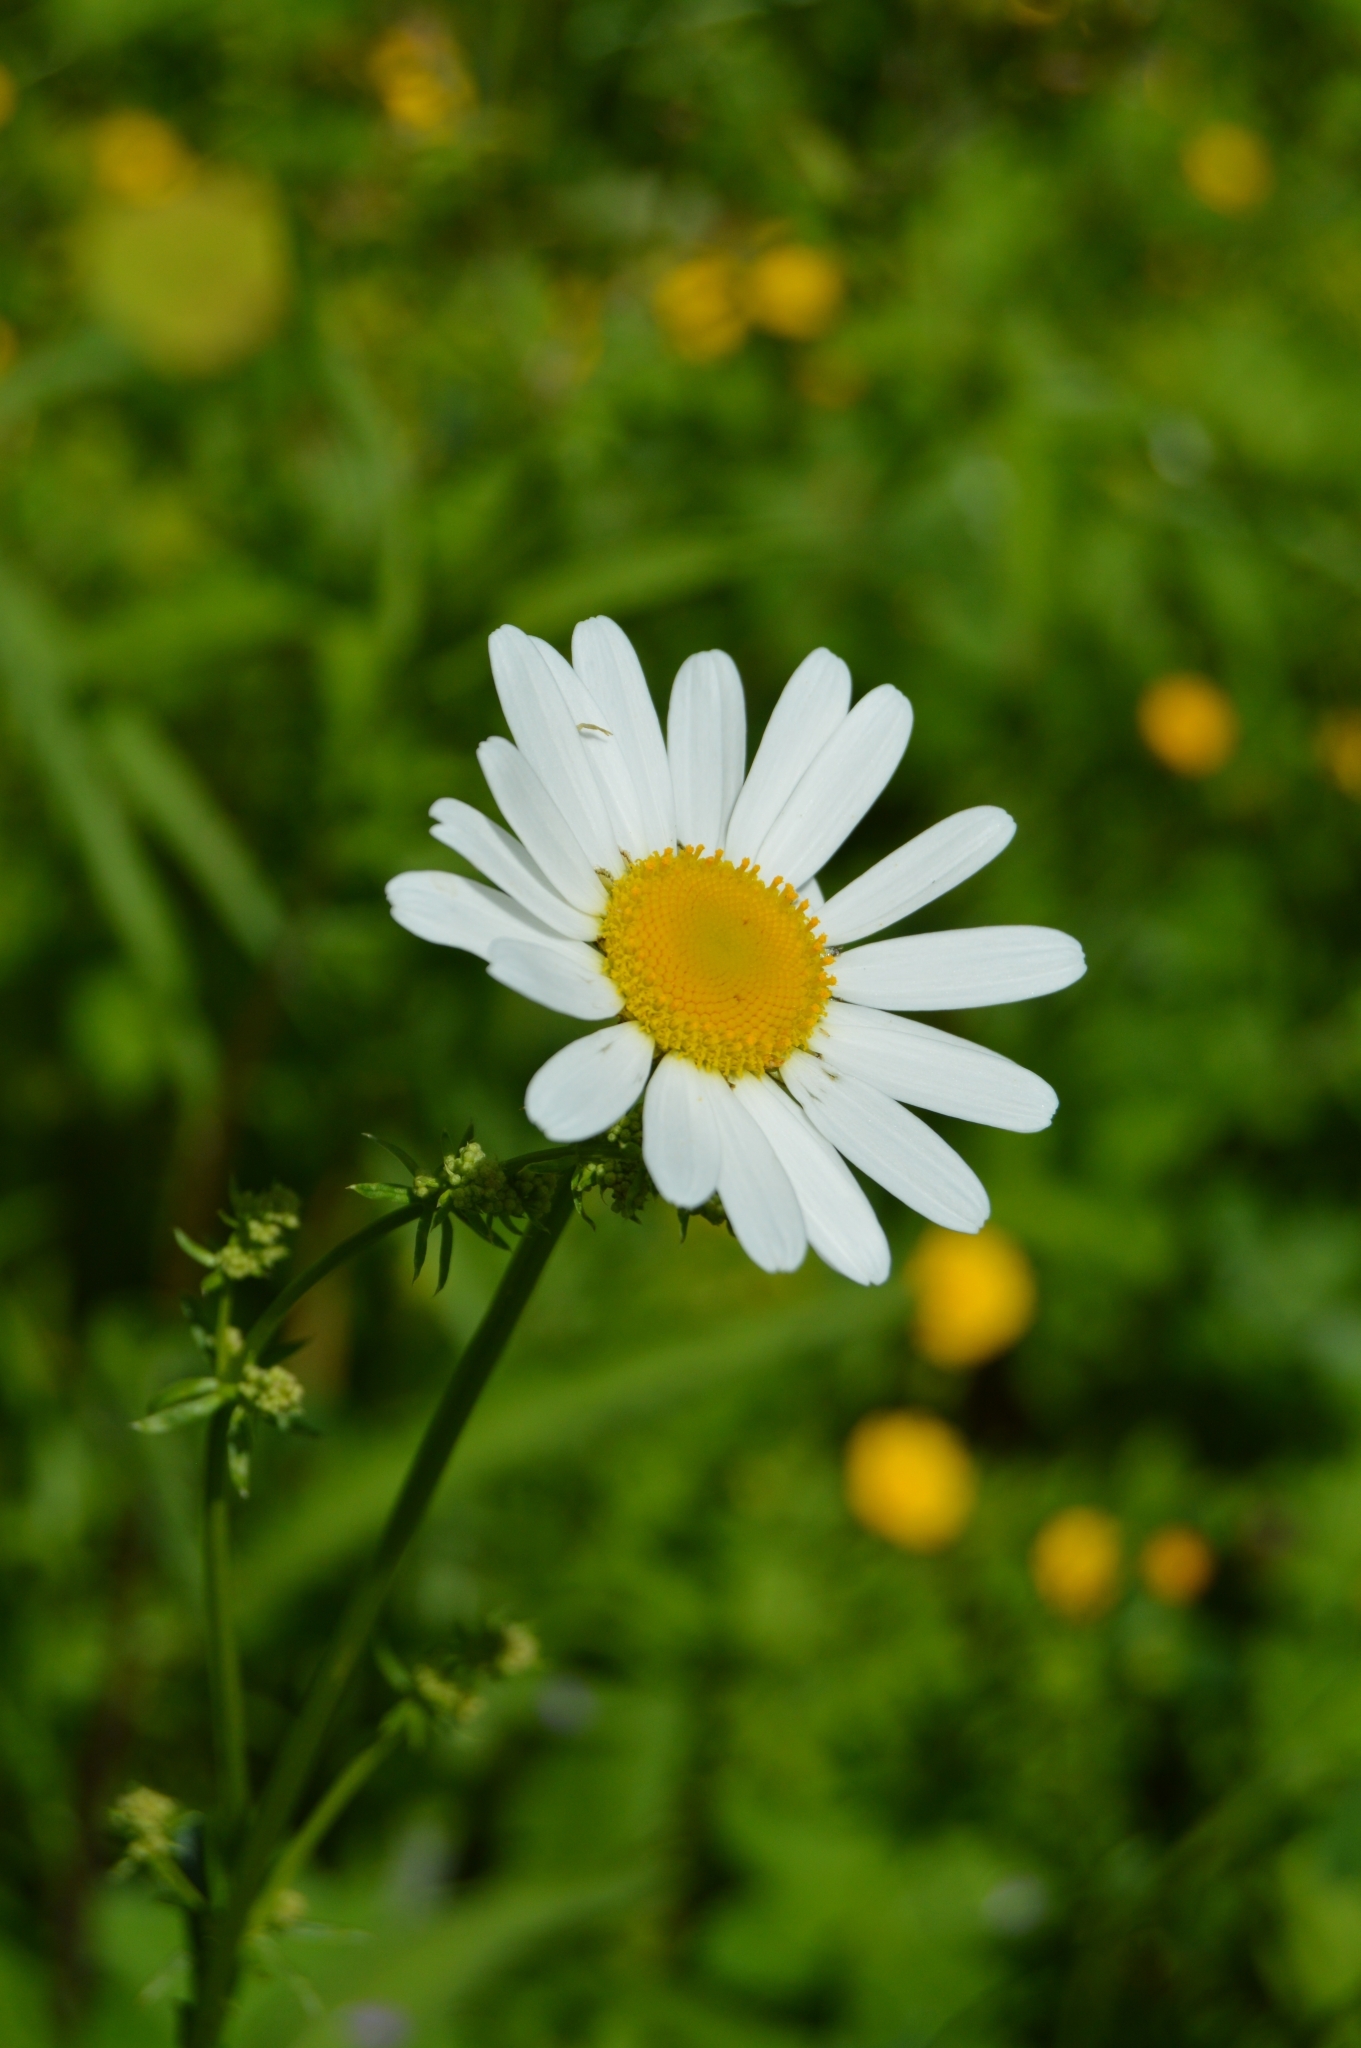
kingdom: Plantae
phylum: Tracheophyta
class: Magnoliopsida
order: Asterales
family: Asteraceae
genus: Leucanthemum
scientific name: Leucanthemum vulgare
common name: Oxeye daisy
